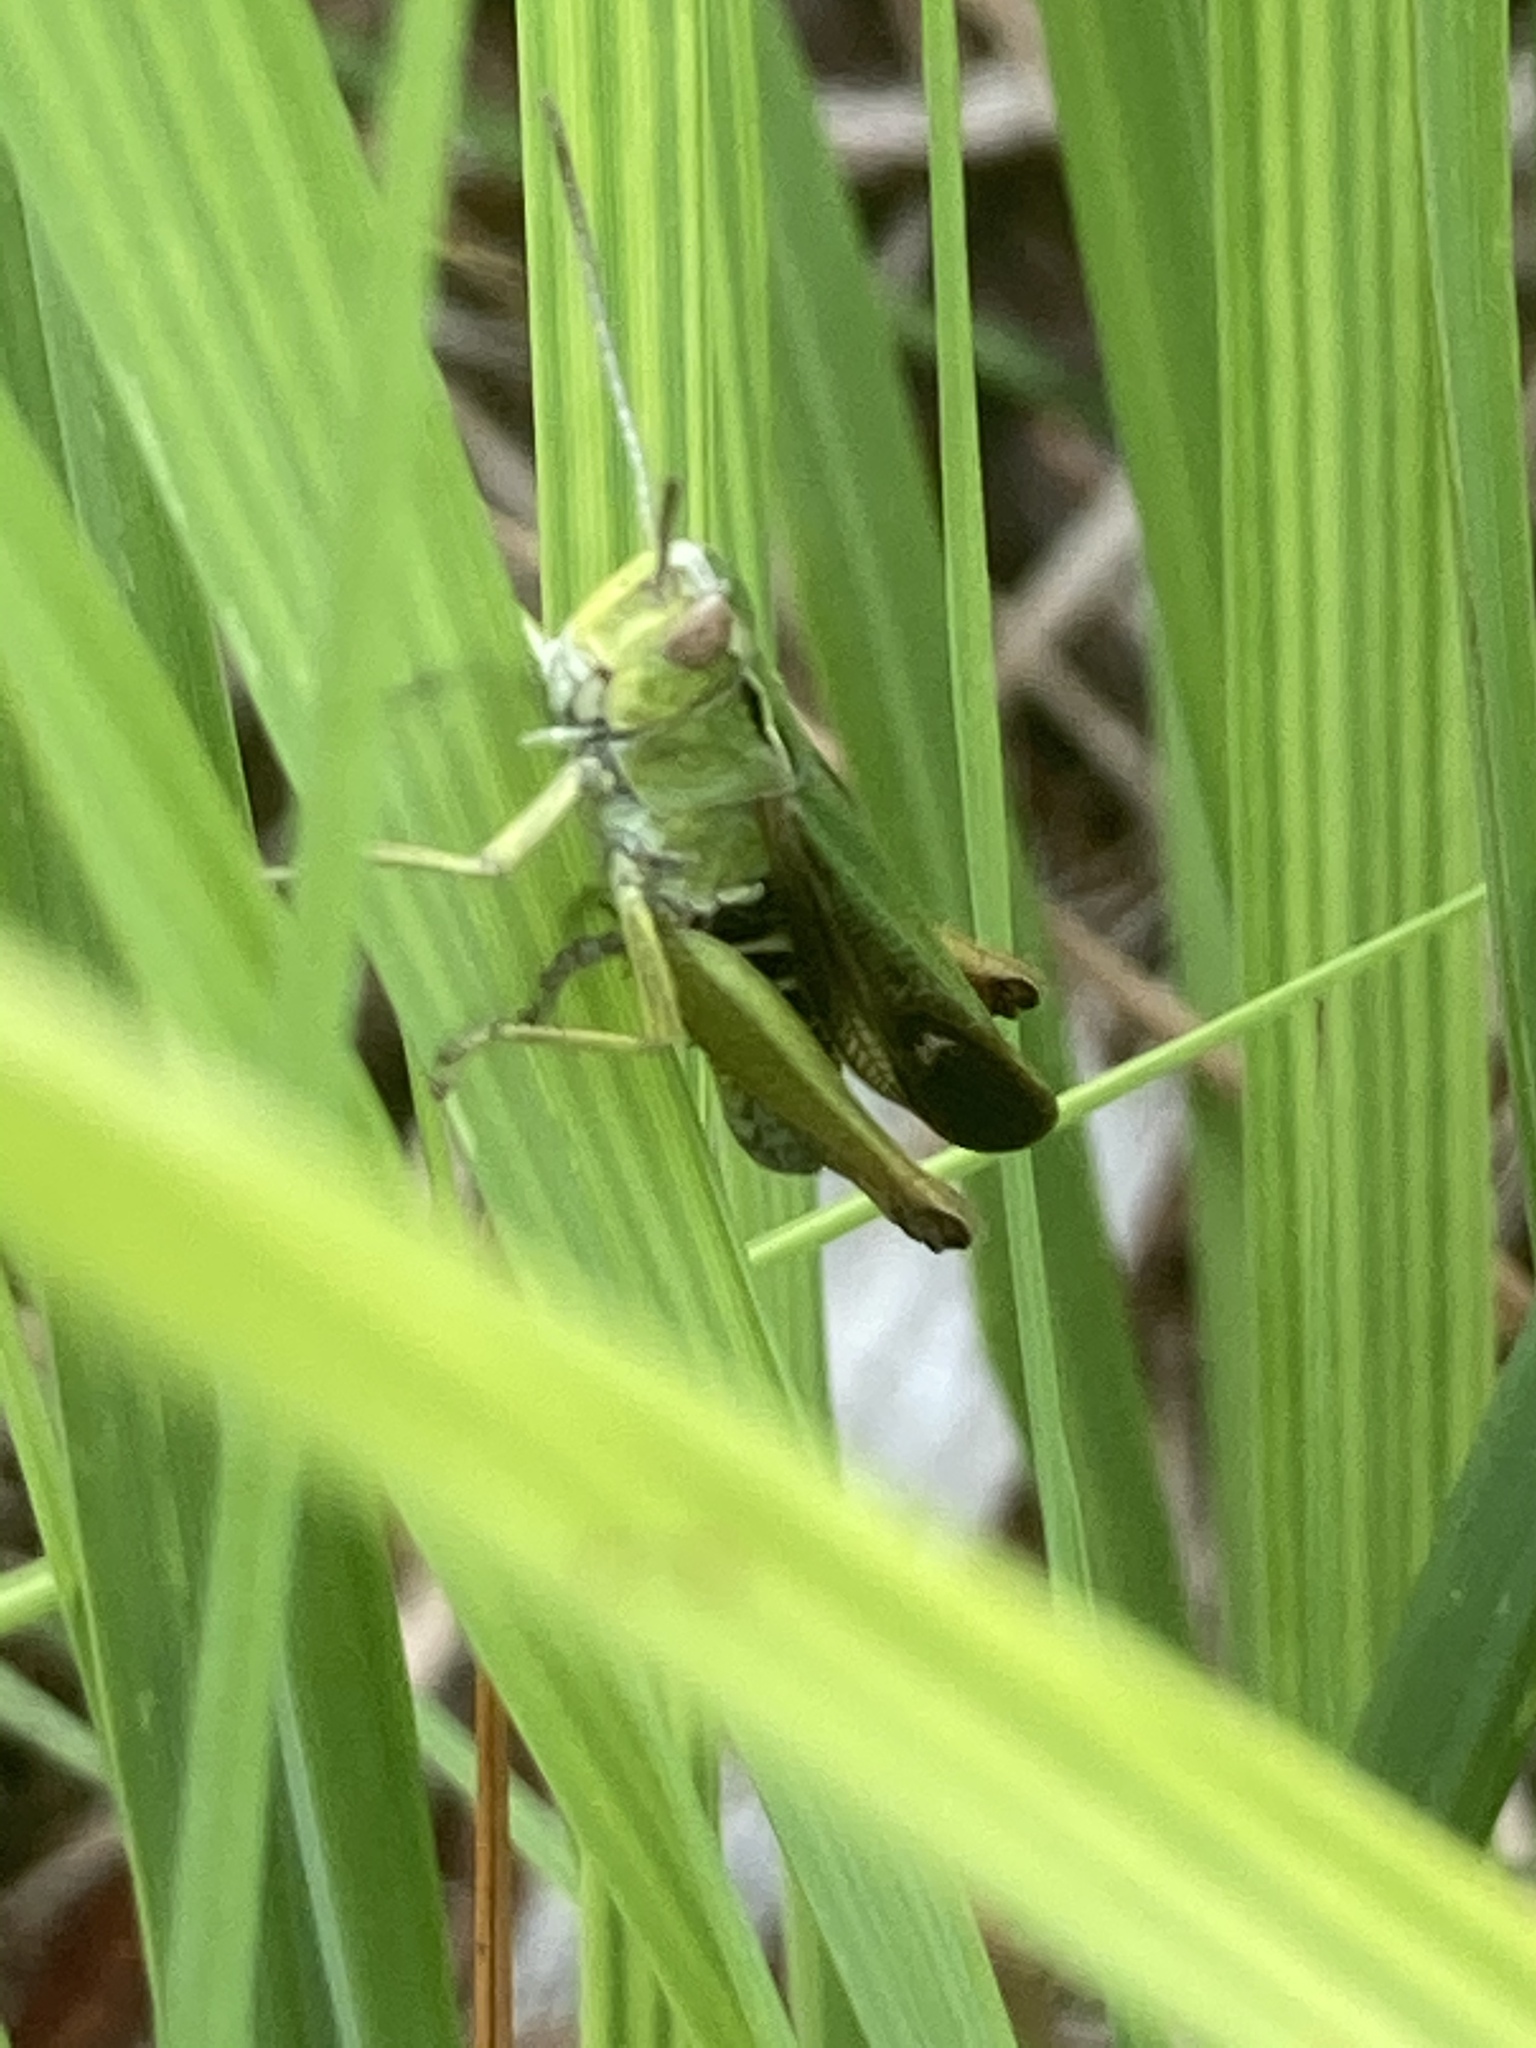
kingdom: Animalia
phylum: Arthropoda
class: Insecta
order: Orthoptera
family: Acrididae
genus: Omocestus
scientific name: Omocestus viridulus
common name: Common green grasshopper
